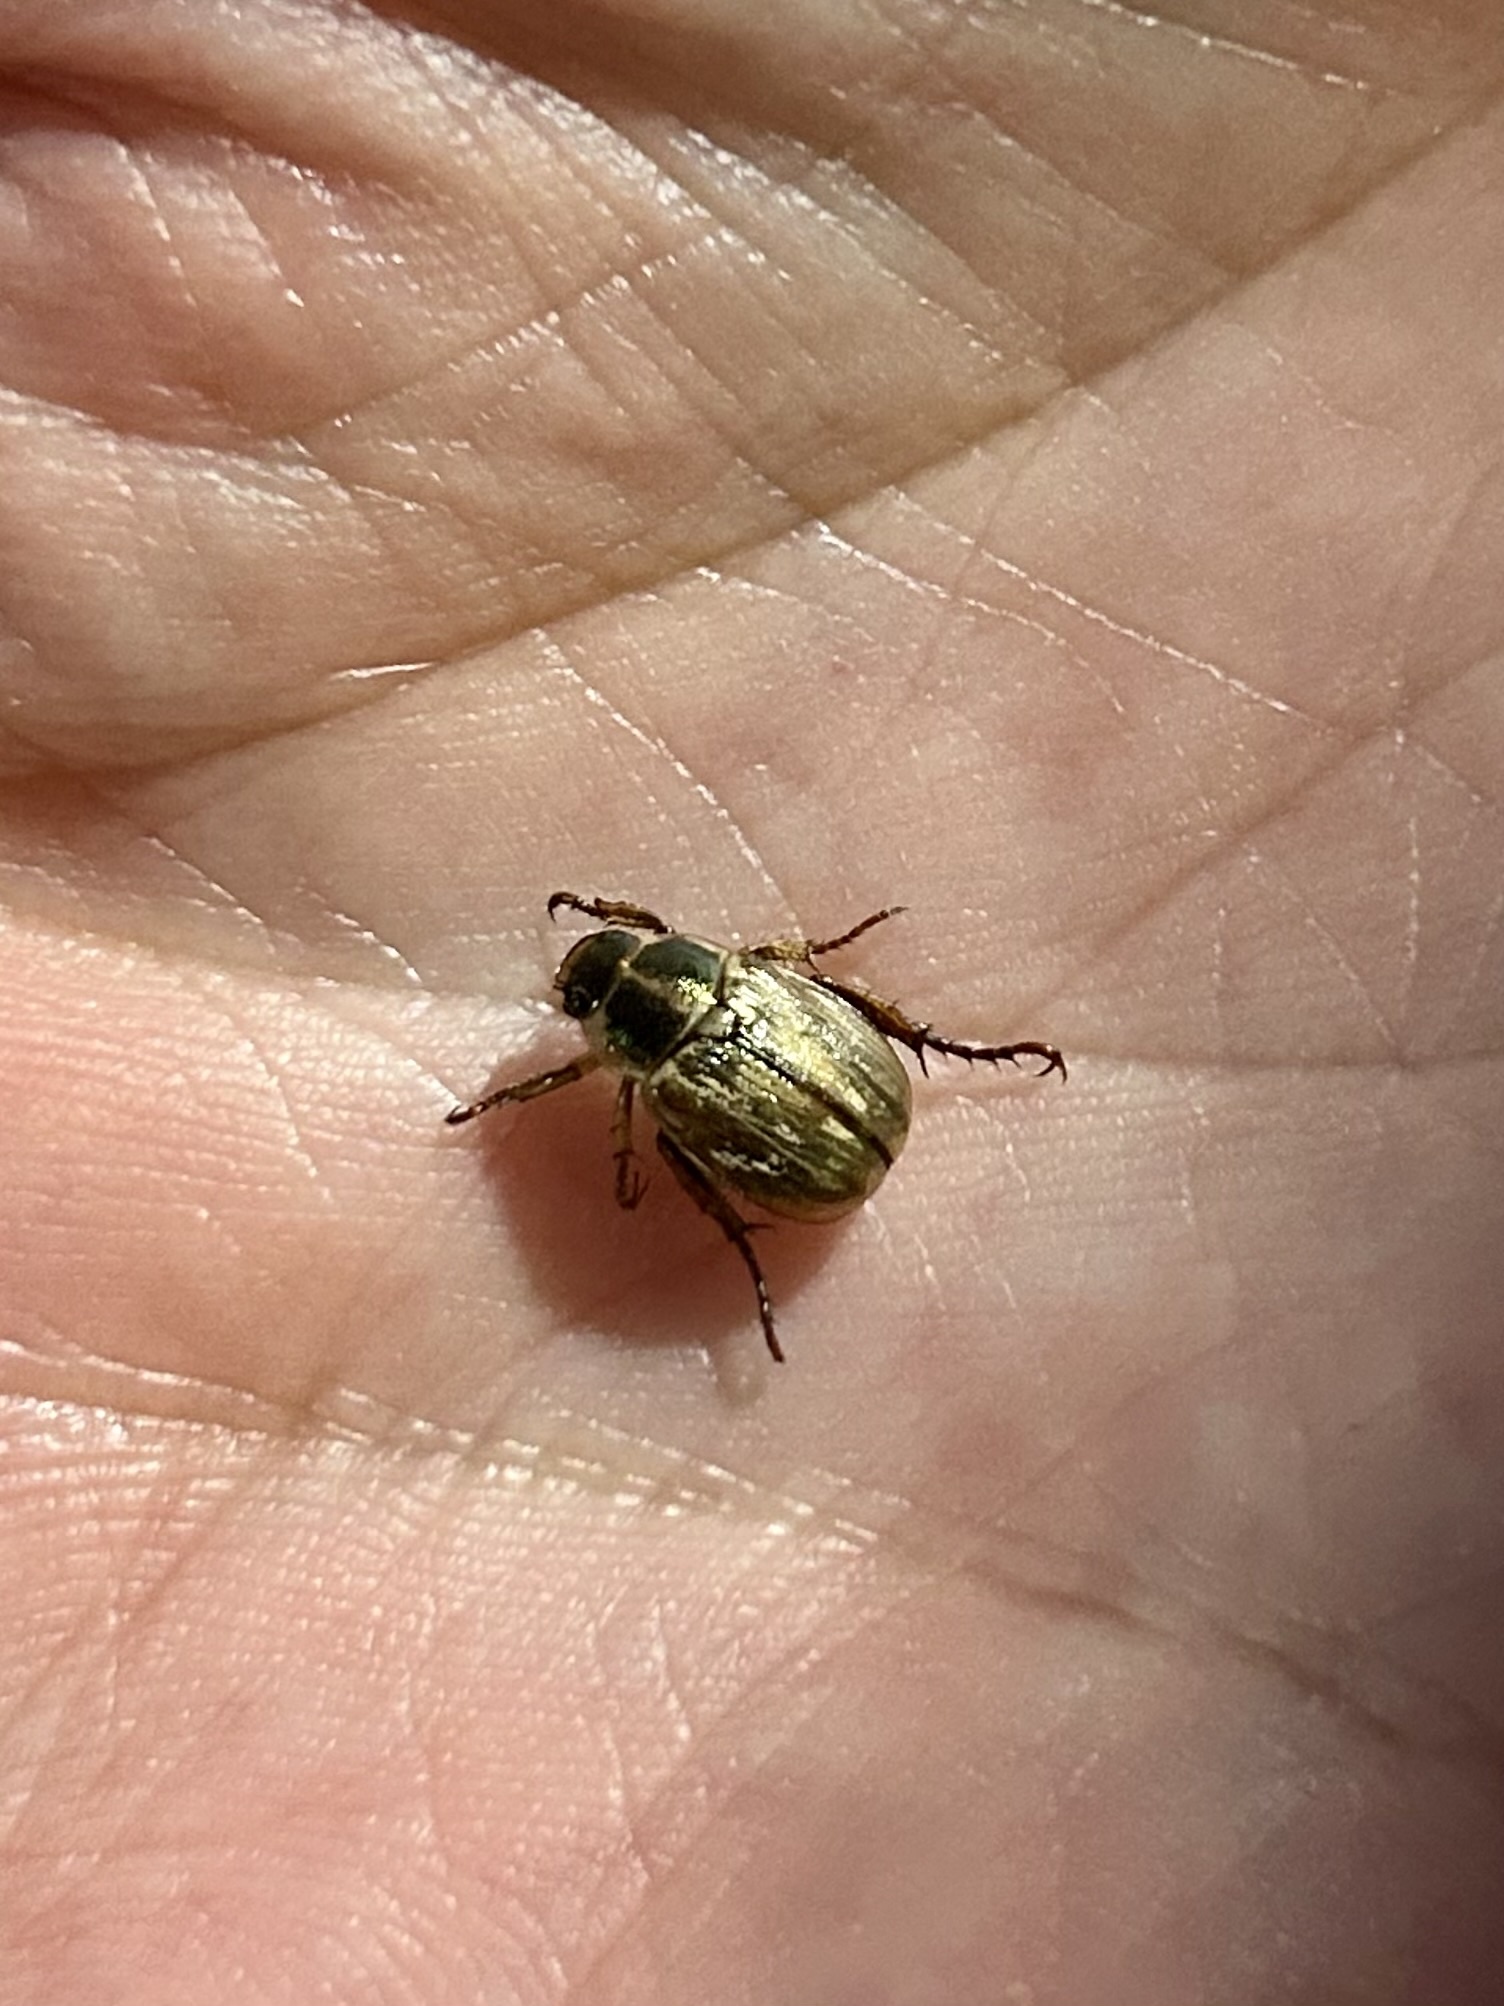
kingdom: Animalia
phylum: Arthropoda
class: Insecta
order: Coleoptera
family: Scarabaeidae
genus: Exomala
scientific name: Exomala orientalis
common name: Oriental beetle
